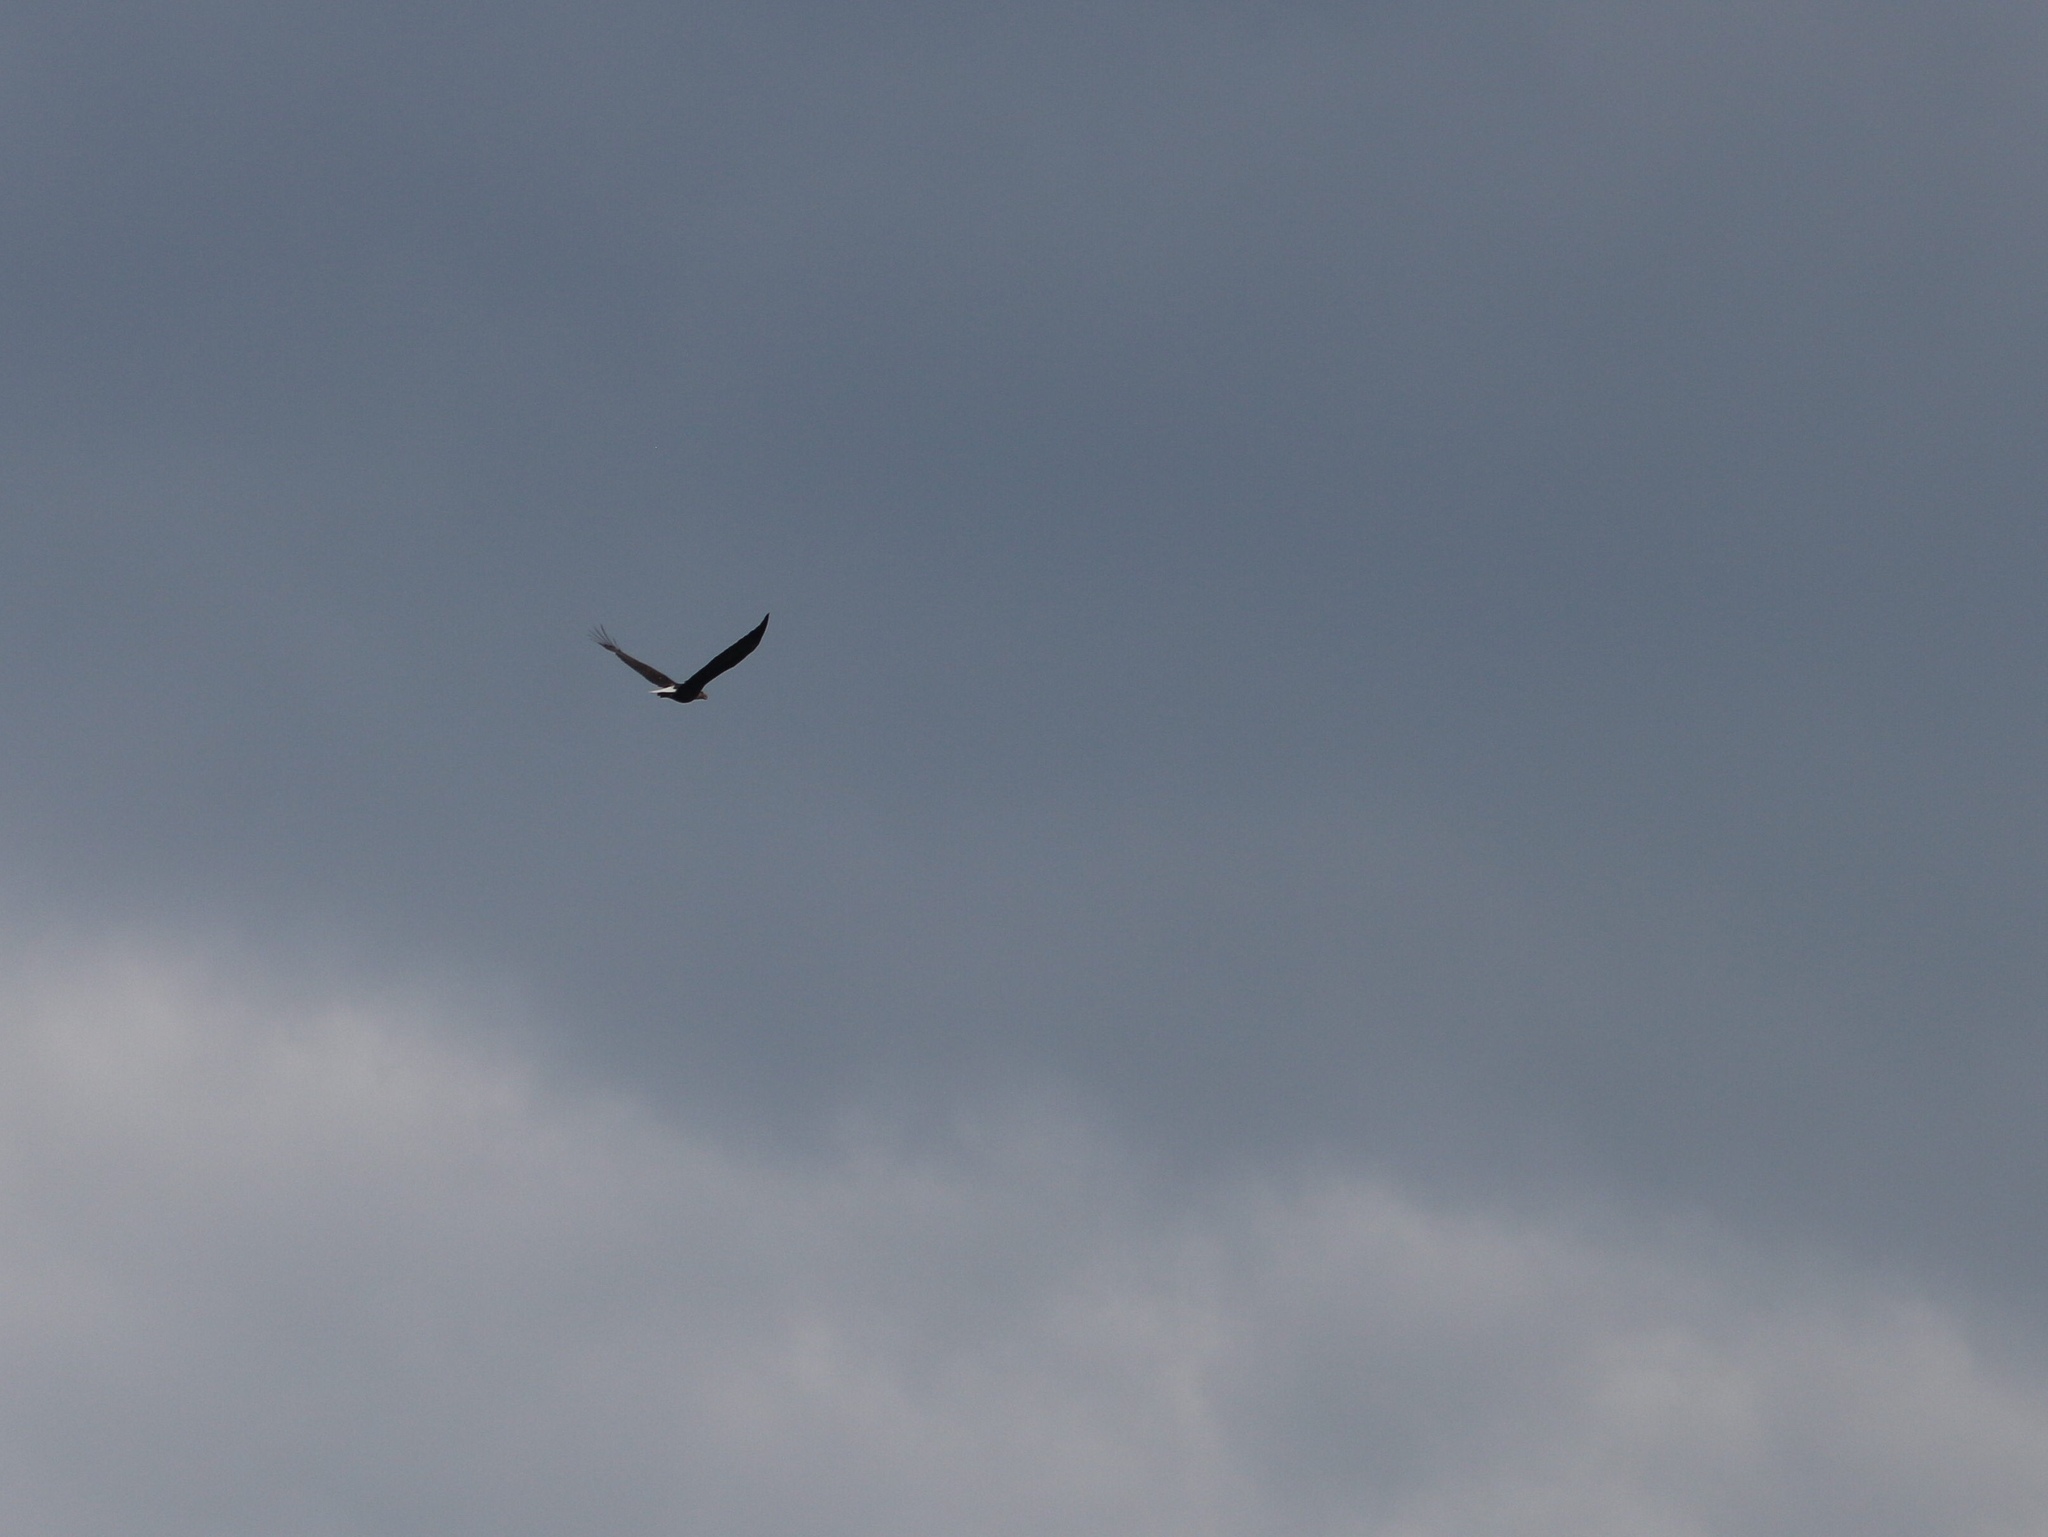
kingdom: Animalia
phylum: Chordata
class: Aves
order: Accipitriformes
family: Accipitridae
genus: Haliaeetus
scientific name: Haliaeetus leucocephalus
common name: Bald eagle
